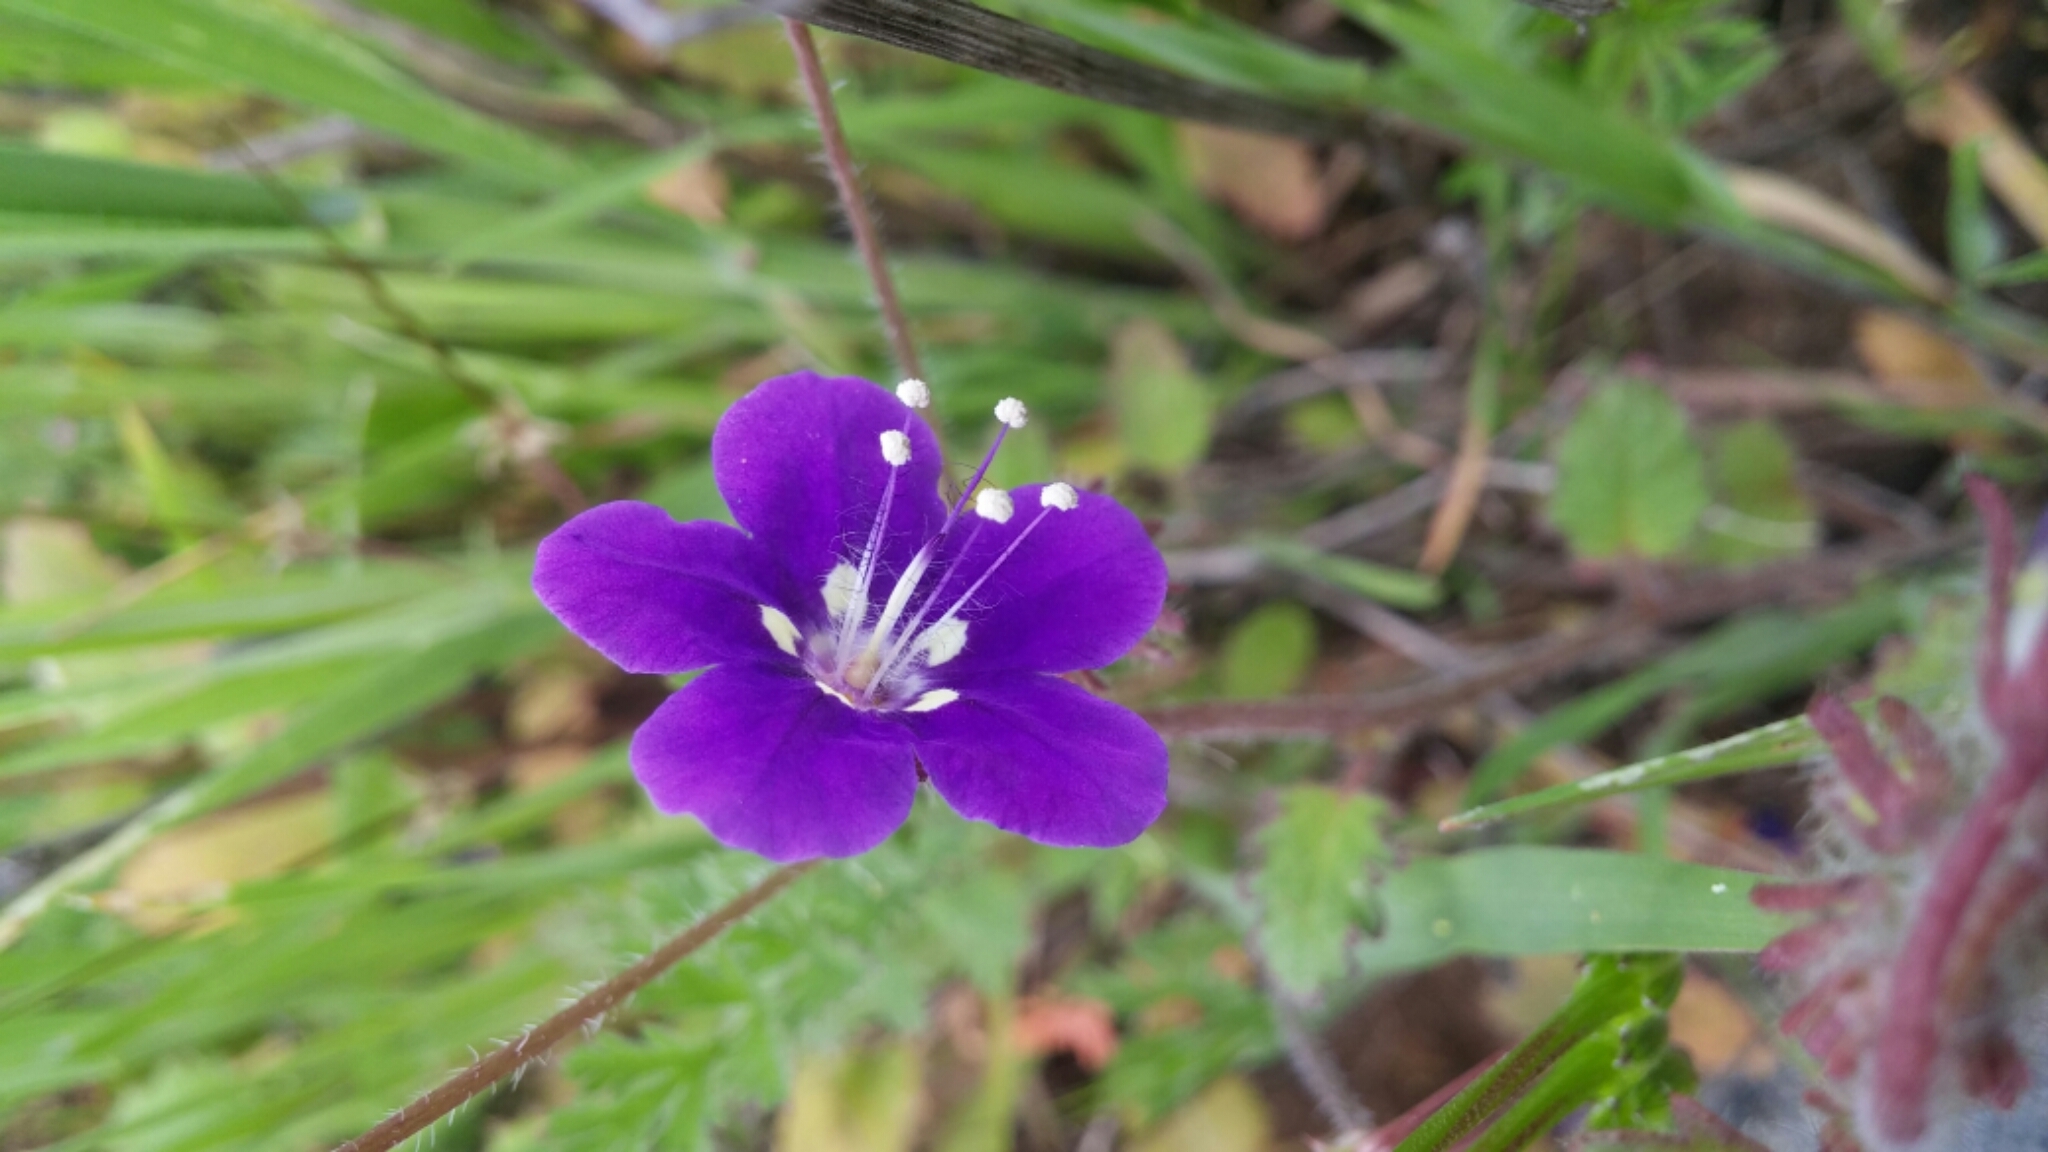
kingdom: Plantae
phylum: Tracheophyta
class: Magnoliopsida
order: Boraginales
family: Hydrophyllaceae
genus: Phacelia
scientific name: Phacelia parryi
